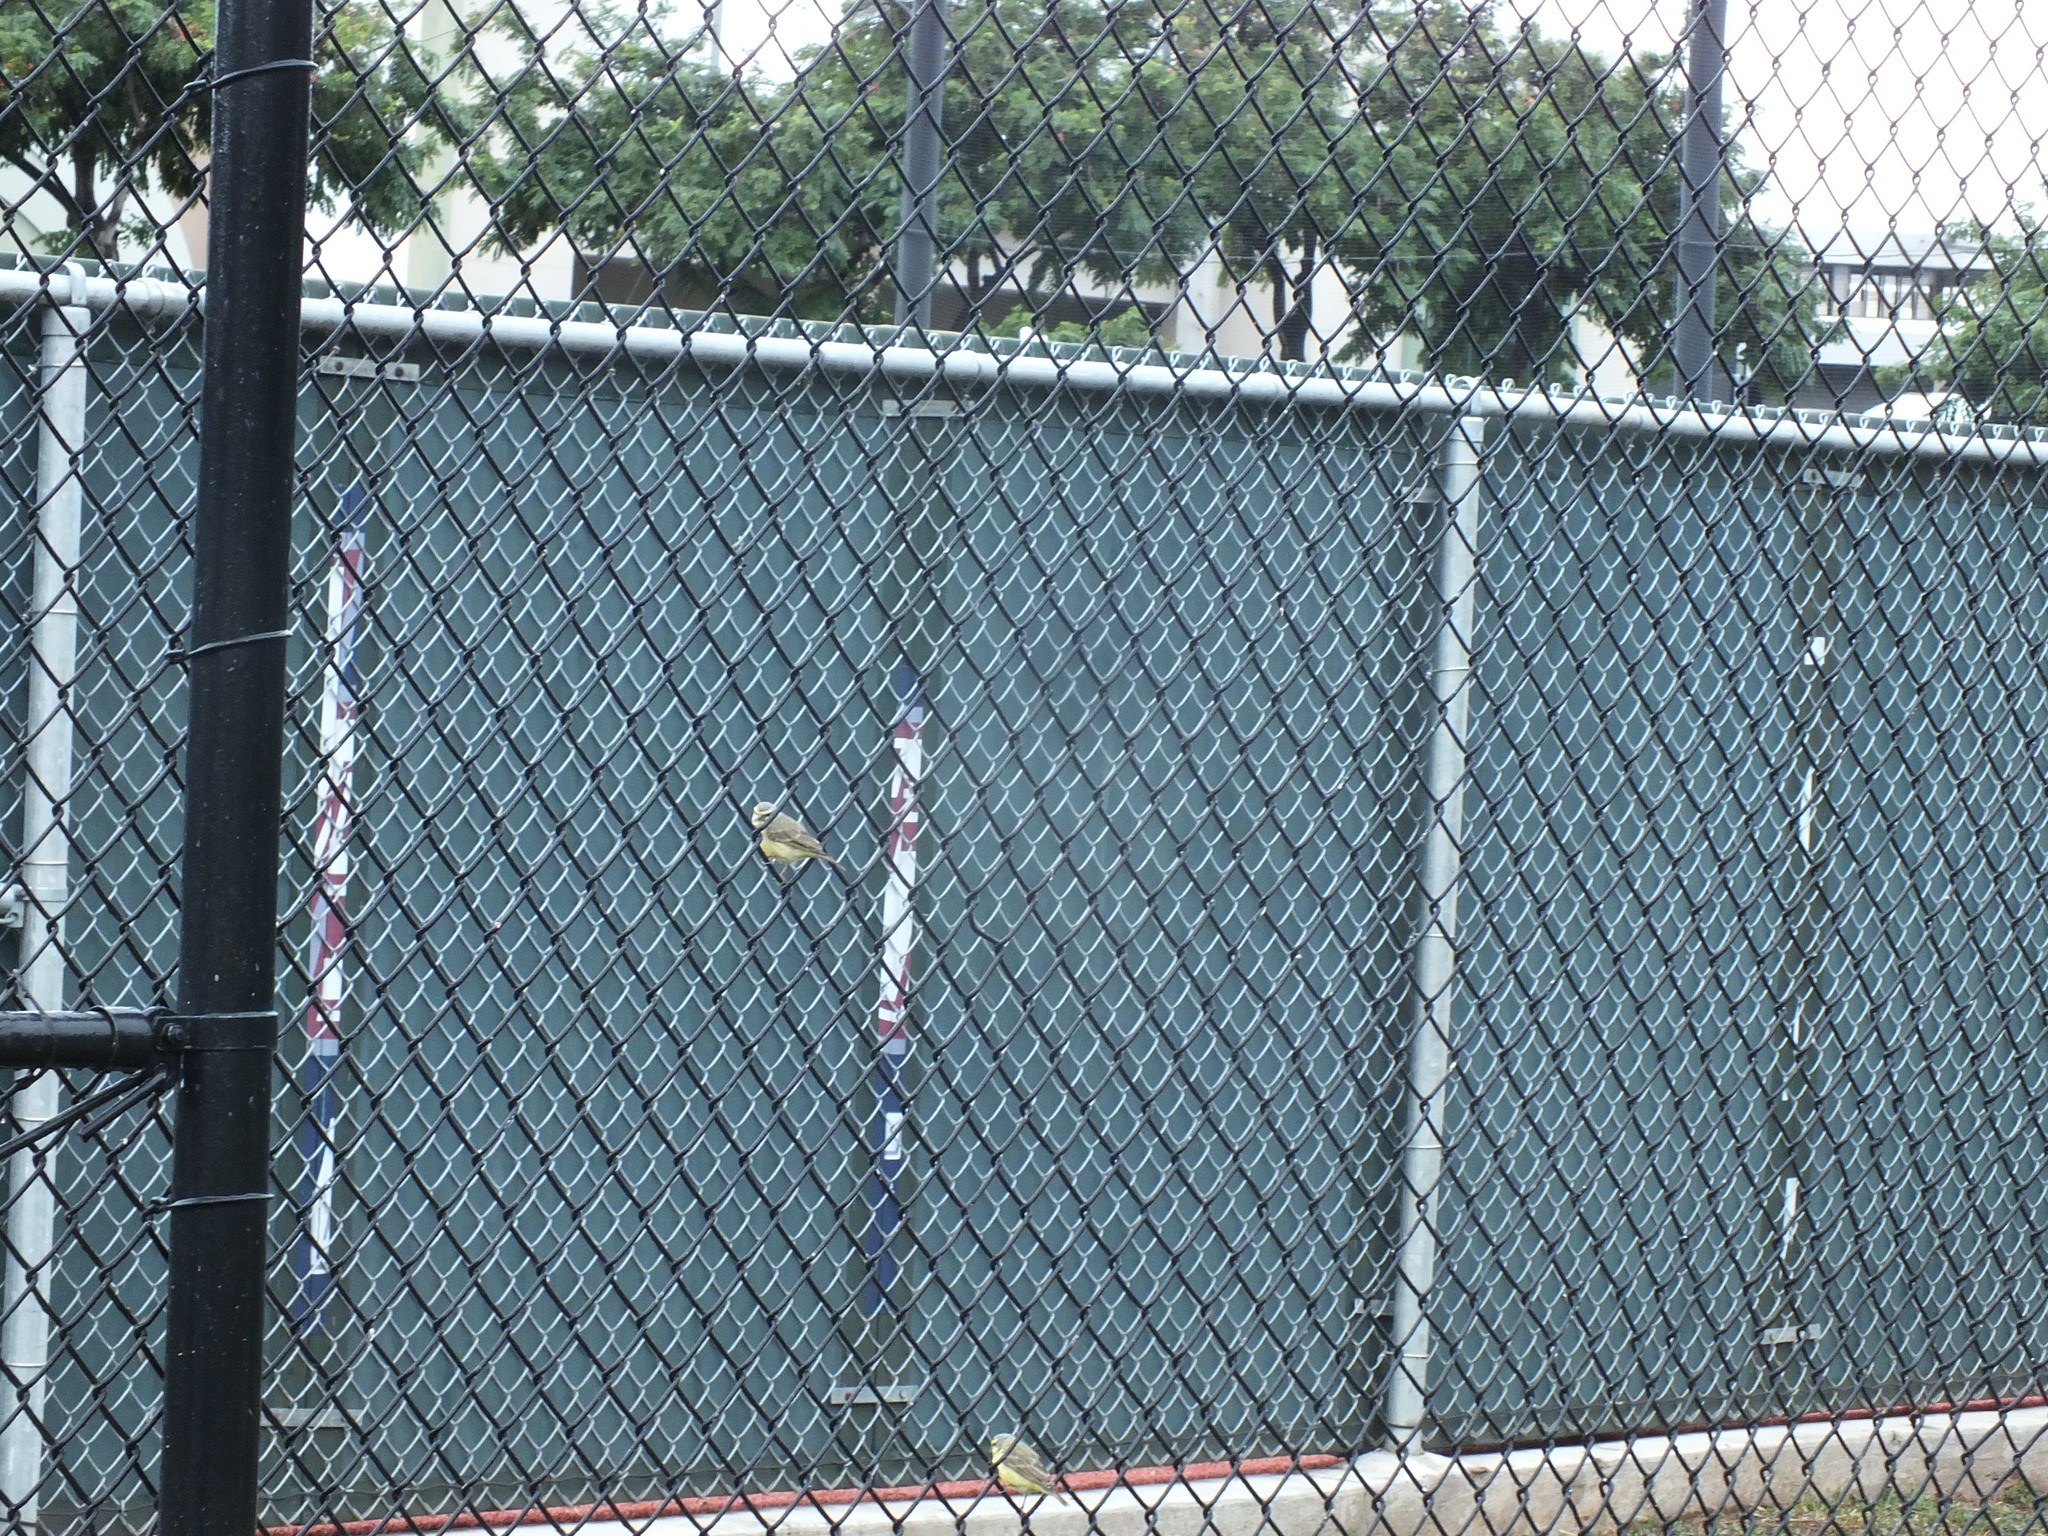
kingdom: Animalia
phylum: Chordata
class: Aves
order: Passeriformes
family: Fringillidae
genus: Crithagra
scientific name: Crithagra mozambica
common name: Yellow-fronted canary
